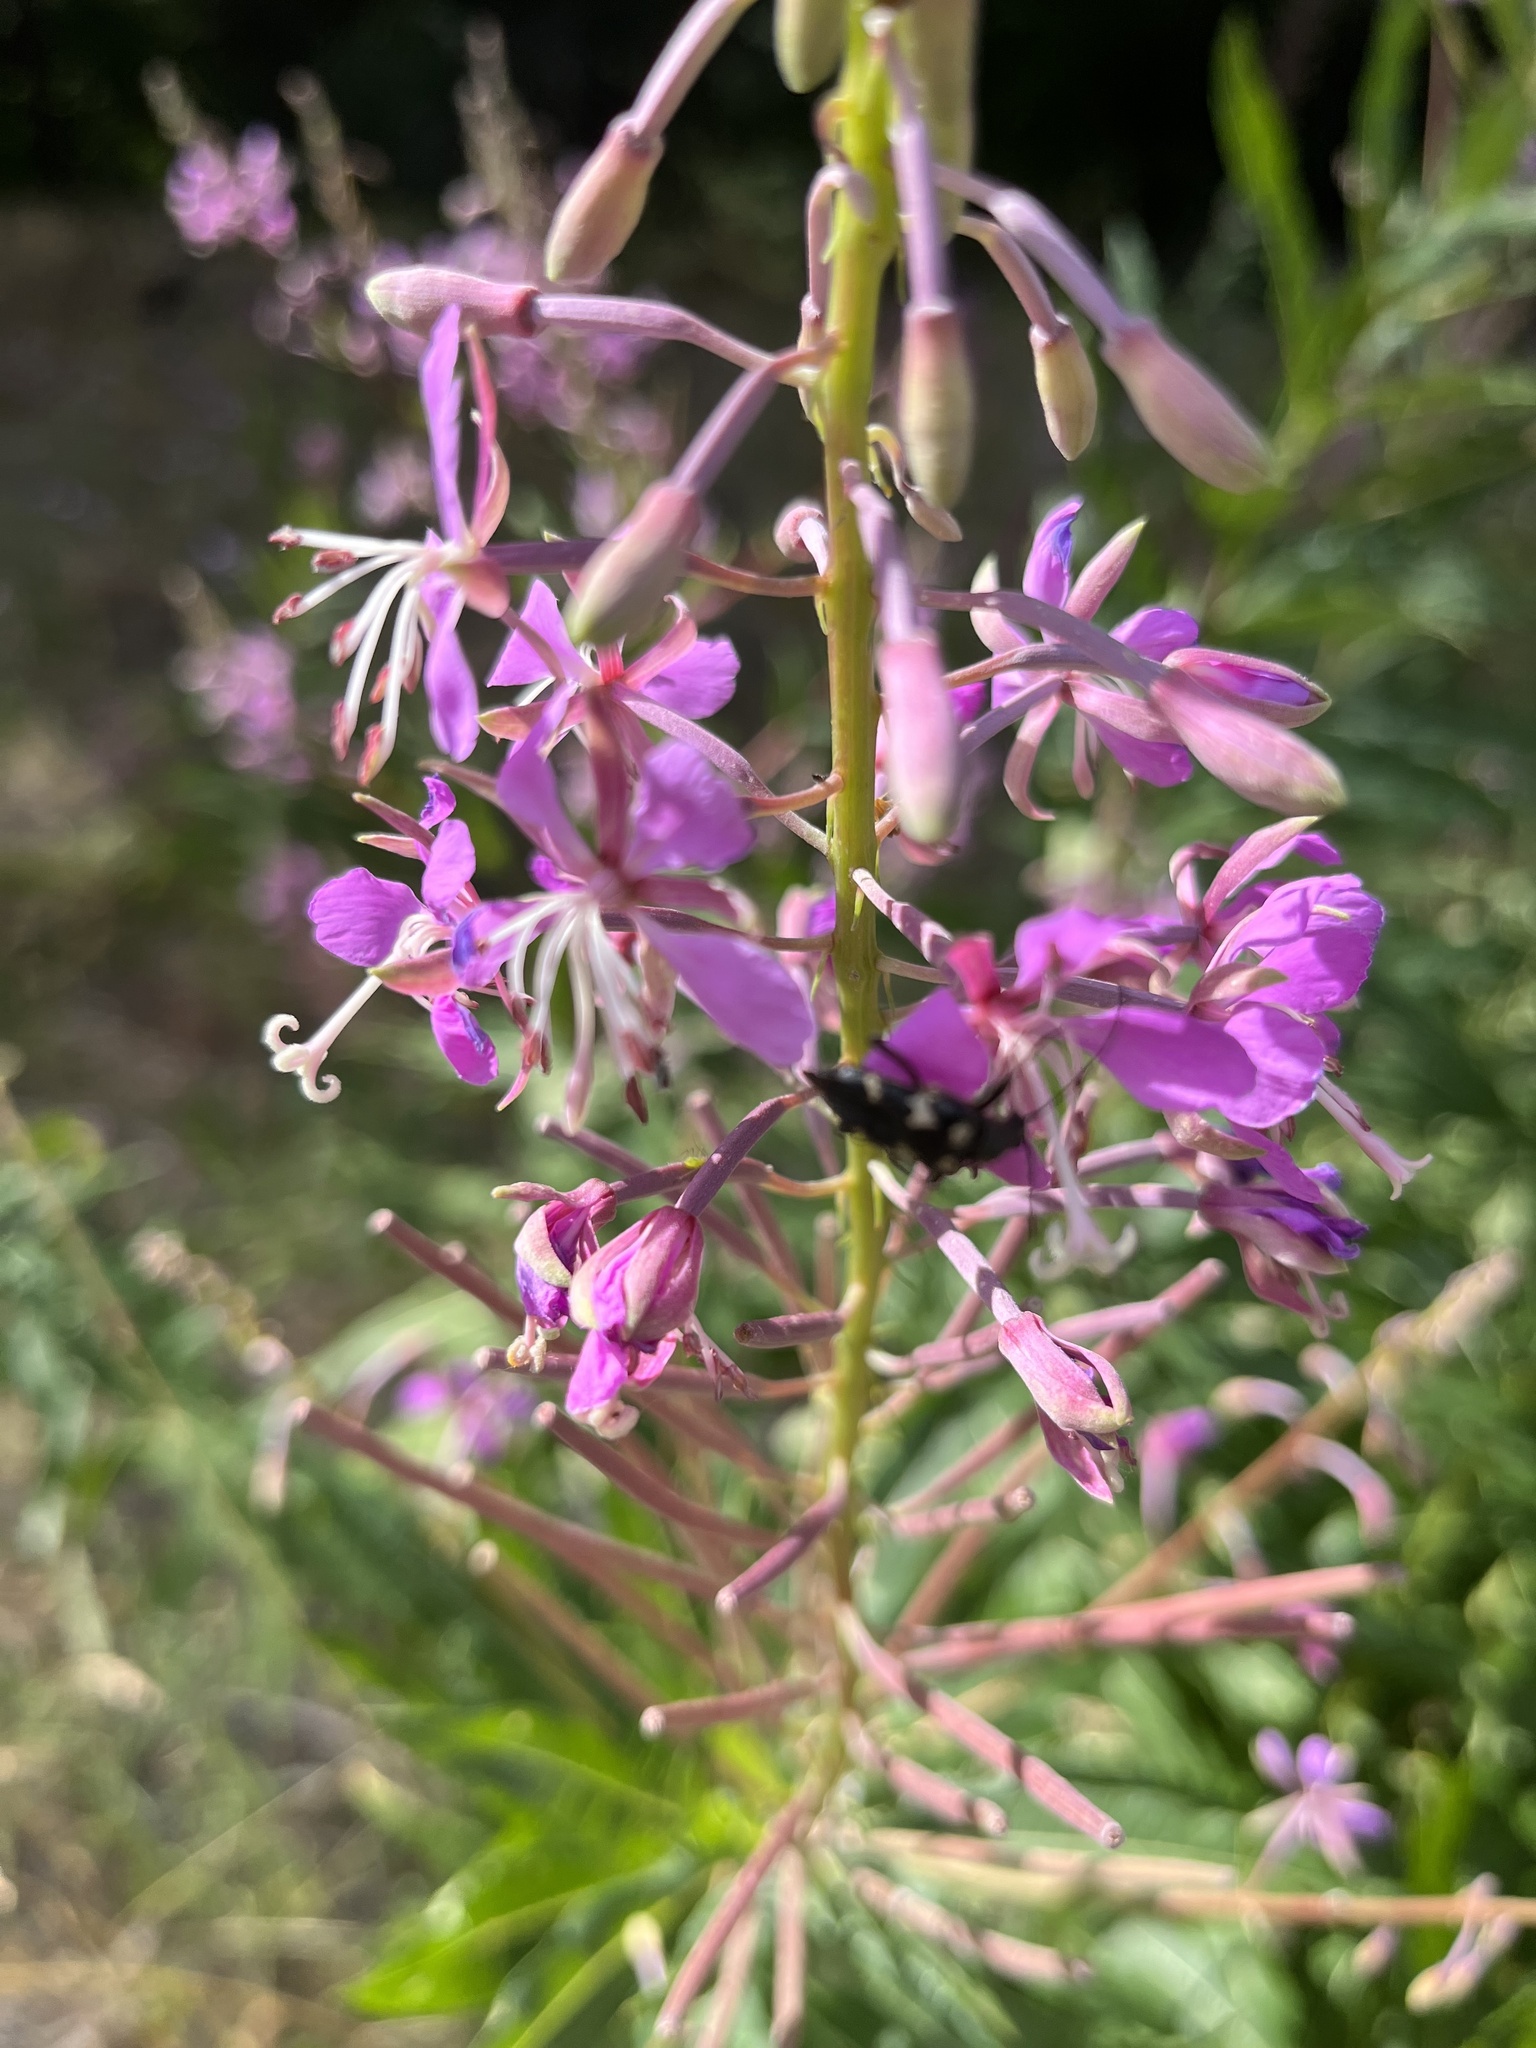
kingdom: Plantae
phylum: Tracheophyta
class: Magnoliopsida
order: Myrtales
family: Onagraceae
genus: Chamaenerion
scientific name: Chamaenerion angustifolium
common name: Fireweed
